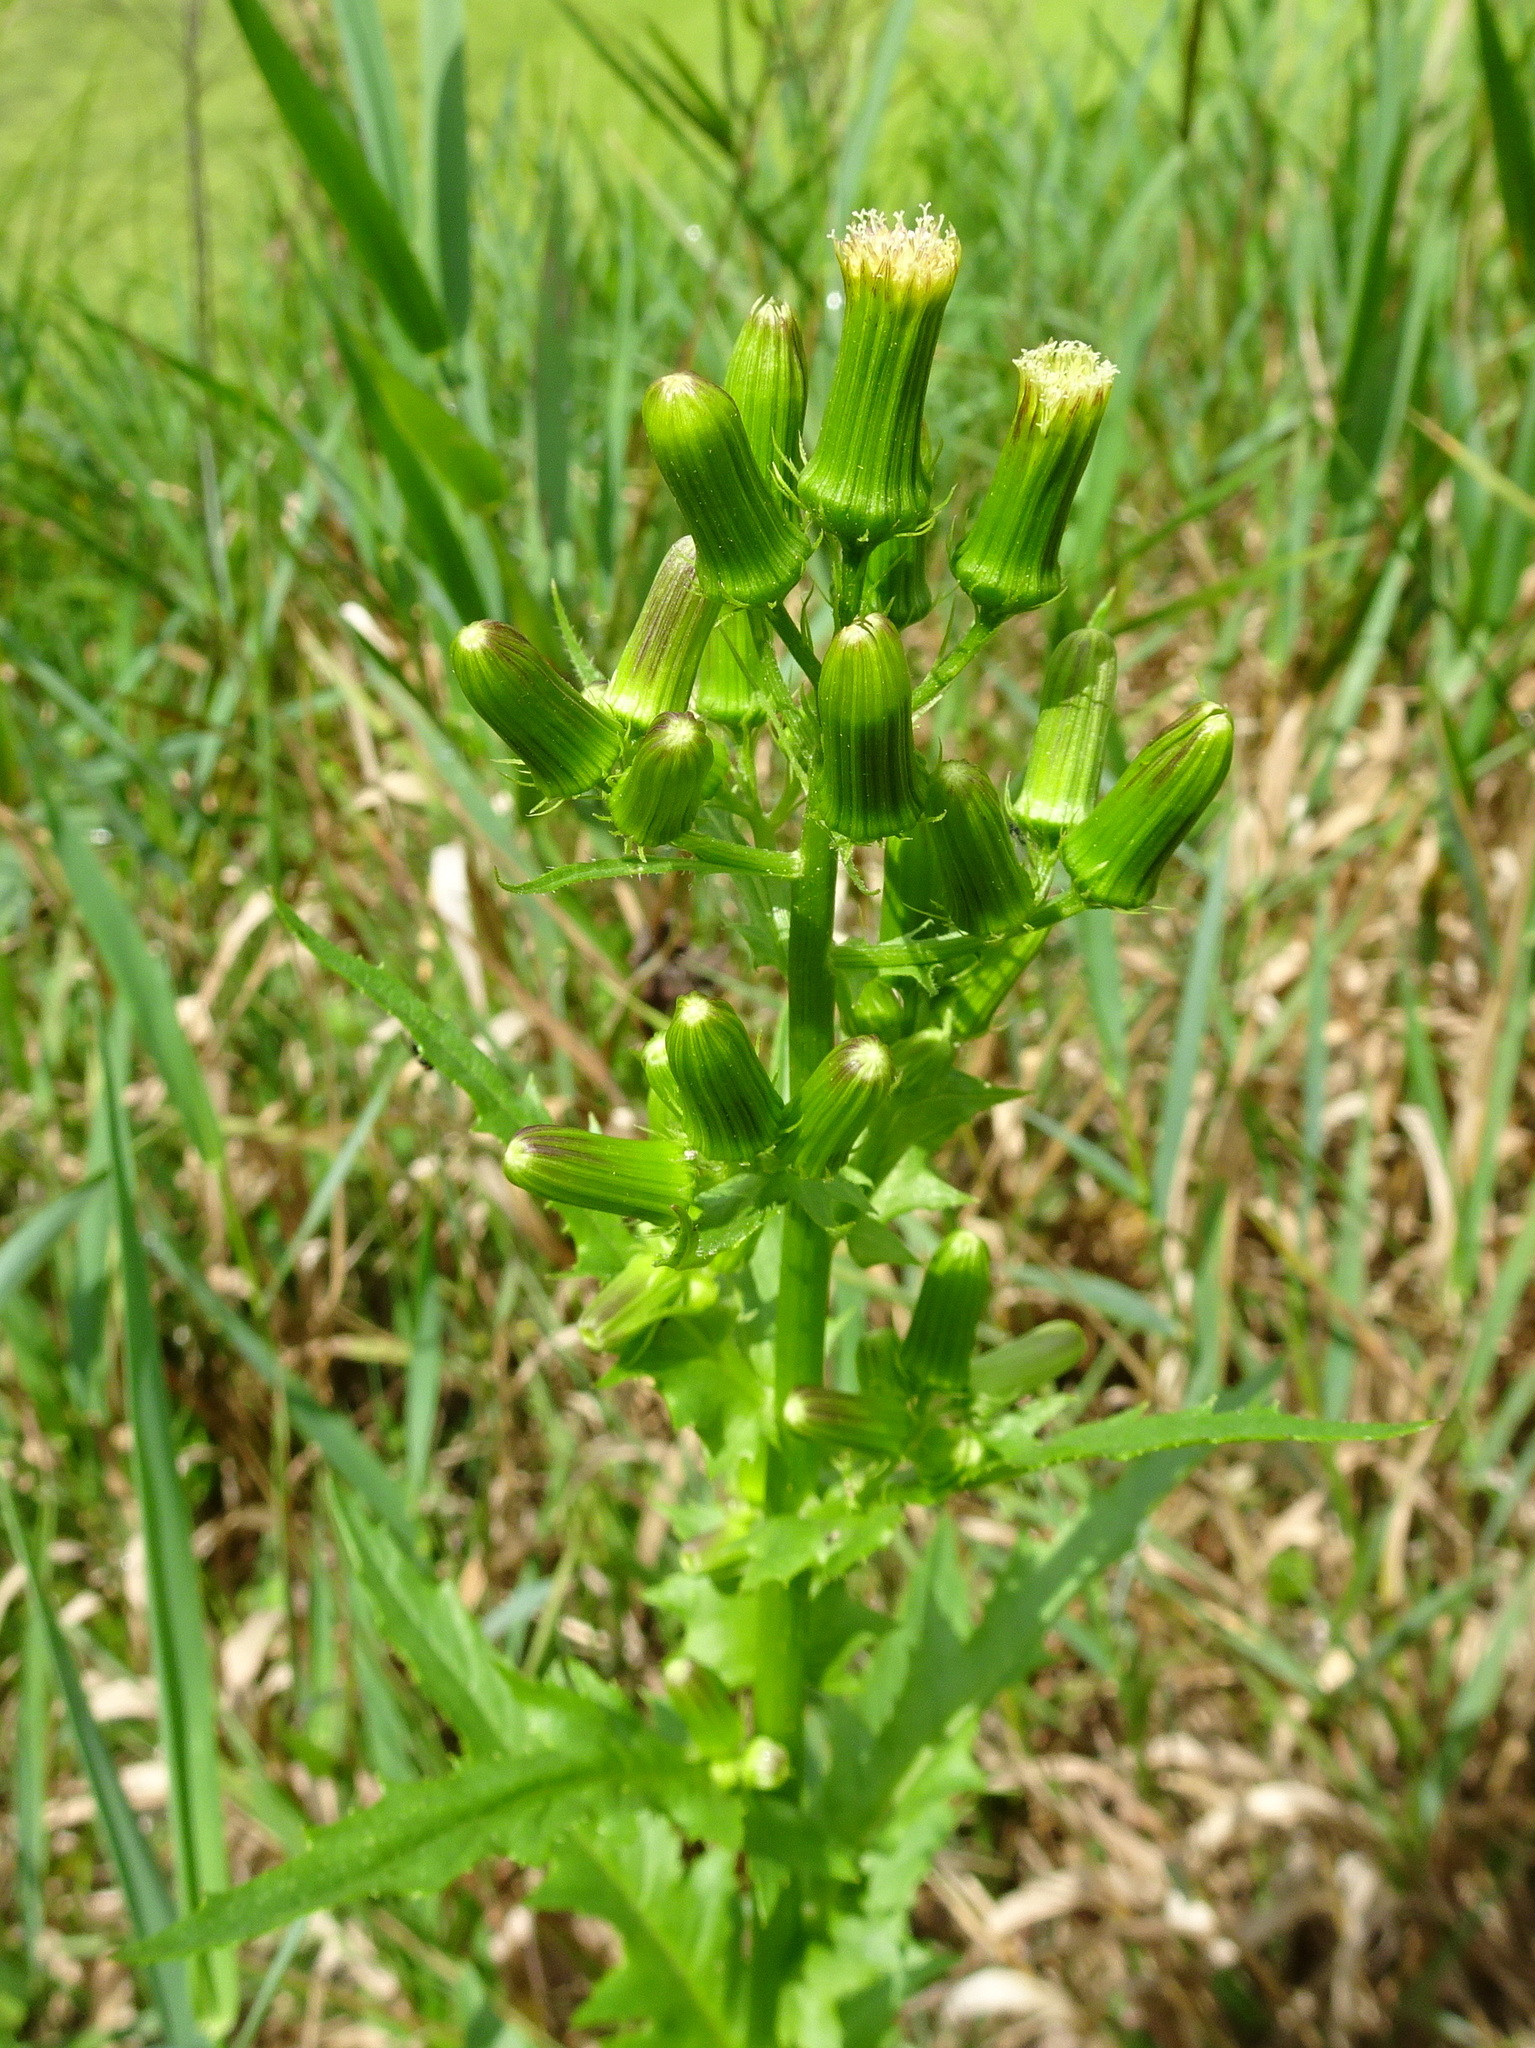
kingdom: Plantae
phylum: Tracheophyta
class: Magnoliopsida
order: Asterales
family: Asteraceae
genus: Erechtites
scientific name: Erechtites hieraciifolius
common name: American burnweed
